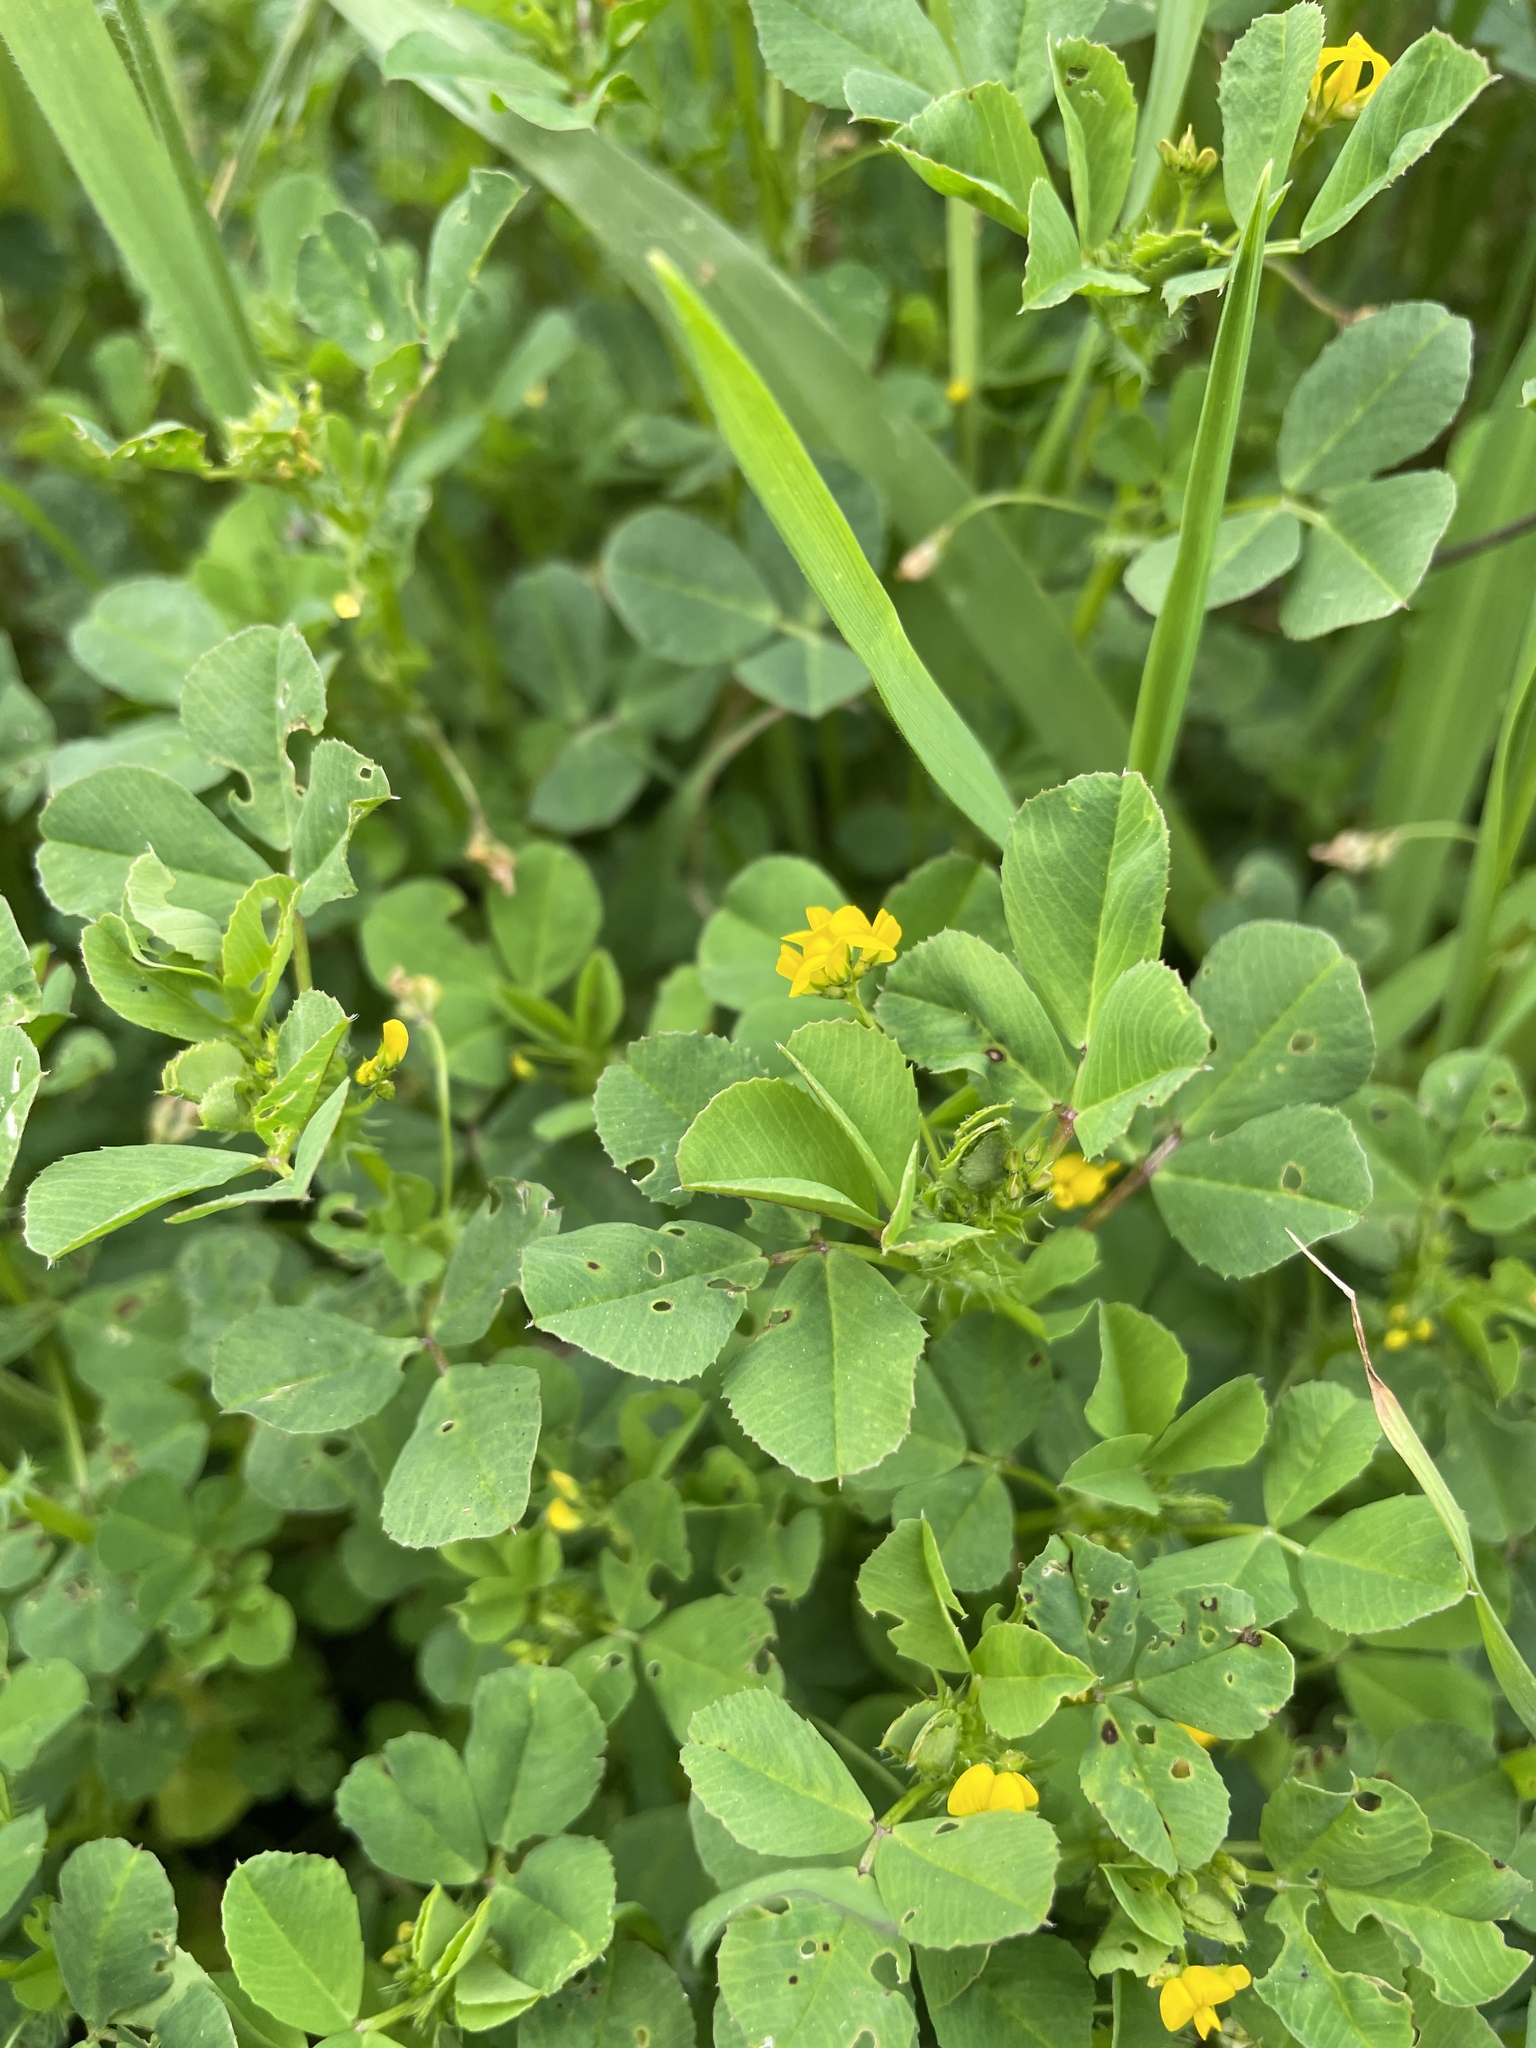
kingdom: Plantae
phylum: Tracheophyta
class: Magnoliopsida
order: Fabales
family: Fabaceae
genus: Medicago
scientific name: Medicago polymorpha
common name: Burclover
